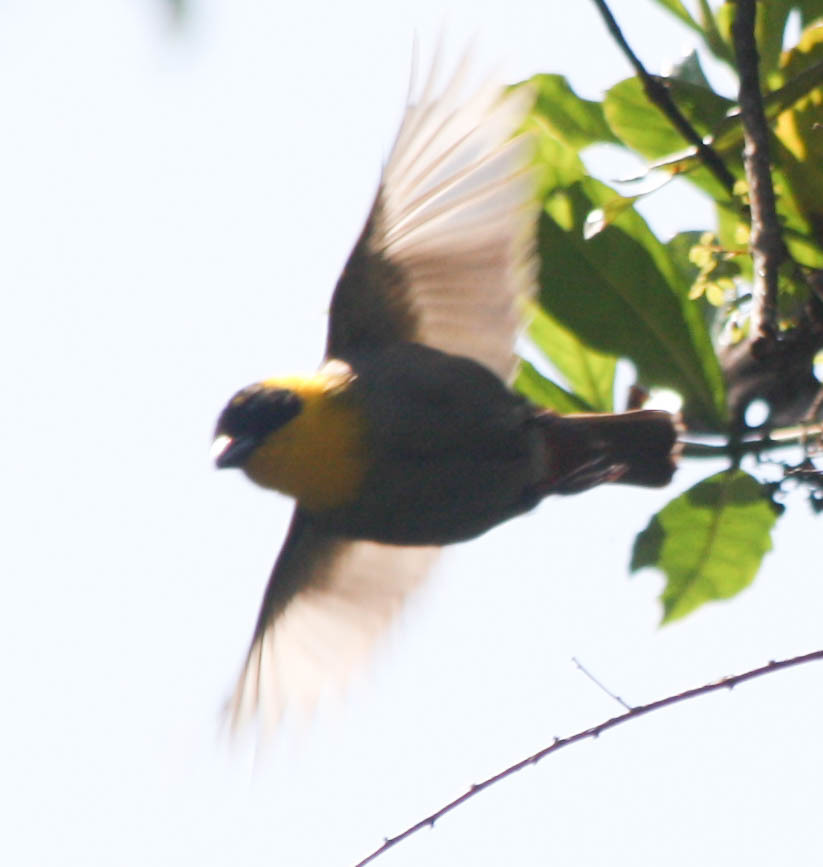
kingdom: Animalia
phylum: Chordata
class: Aves
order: Passeriformes
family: Ploceidae
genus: Ploceus
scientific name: Ploceus nelicourvi
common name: Nelicourvi weaver
